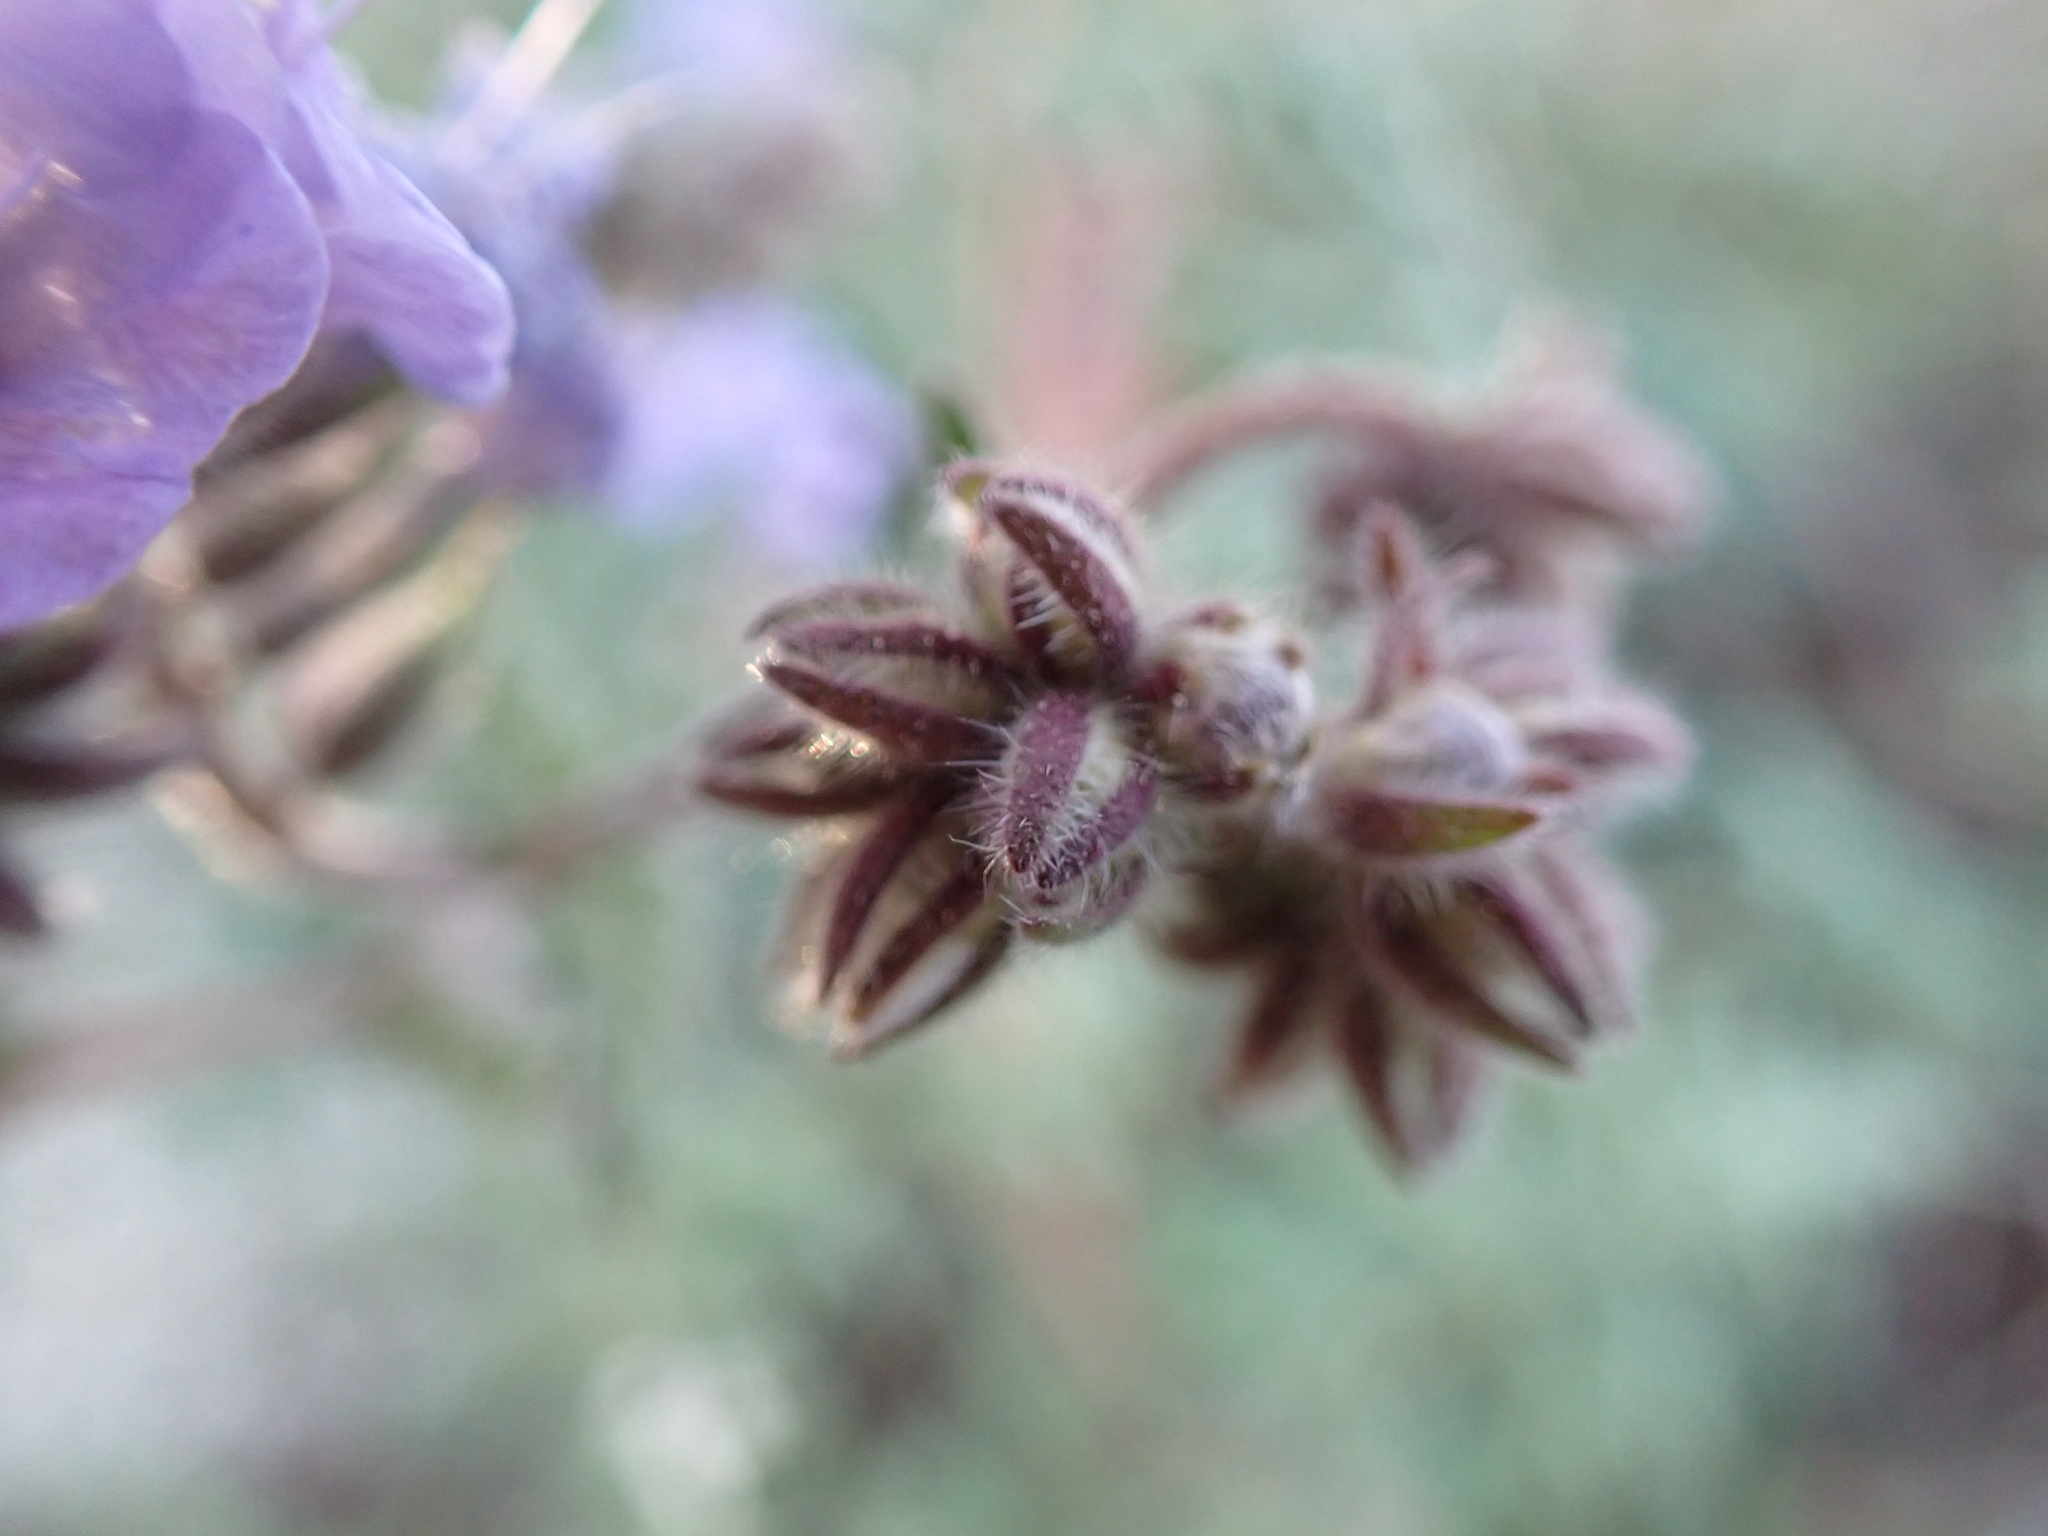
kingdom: Plantae
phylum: Tracheophyta
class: Magnoliopsida
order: Boraginales
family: Hydrophyllaceae
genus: Phacelia
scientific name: Phacelia distans
